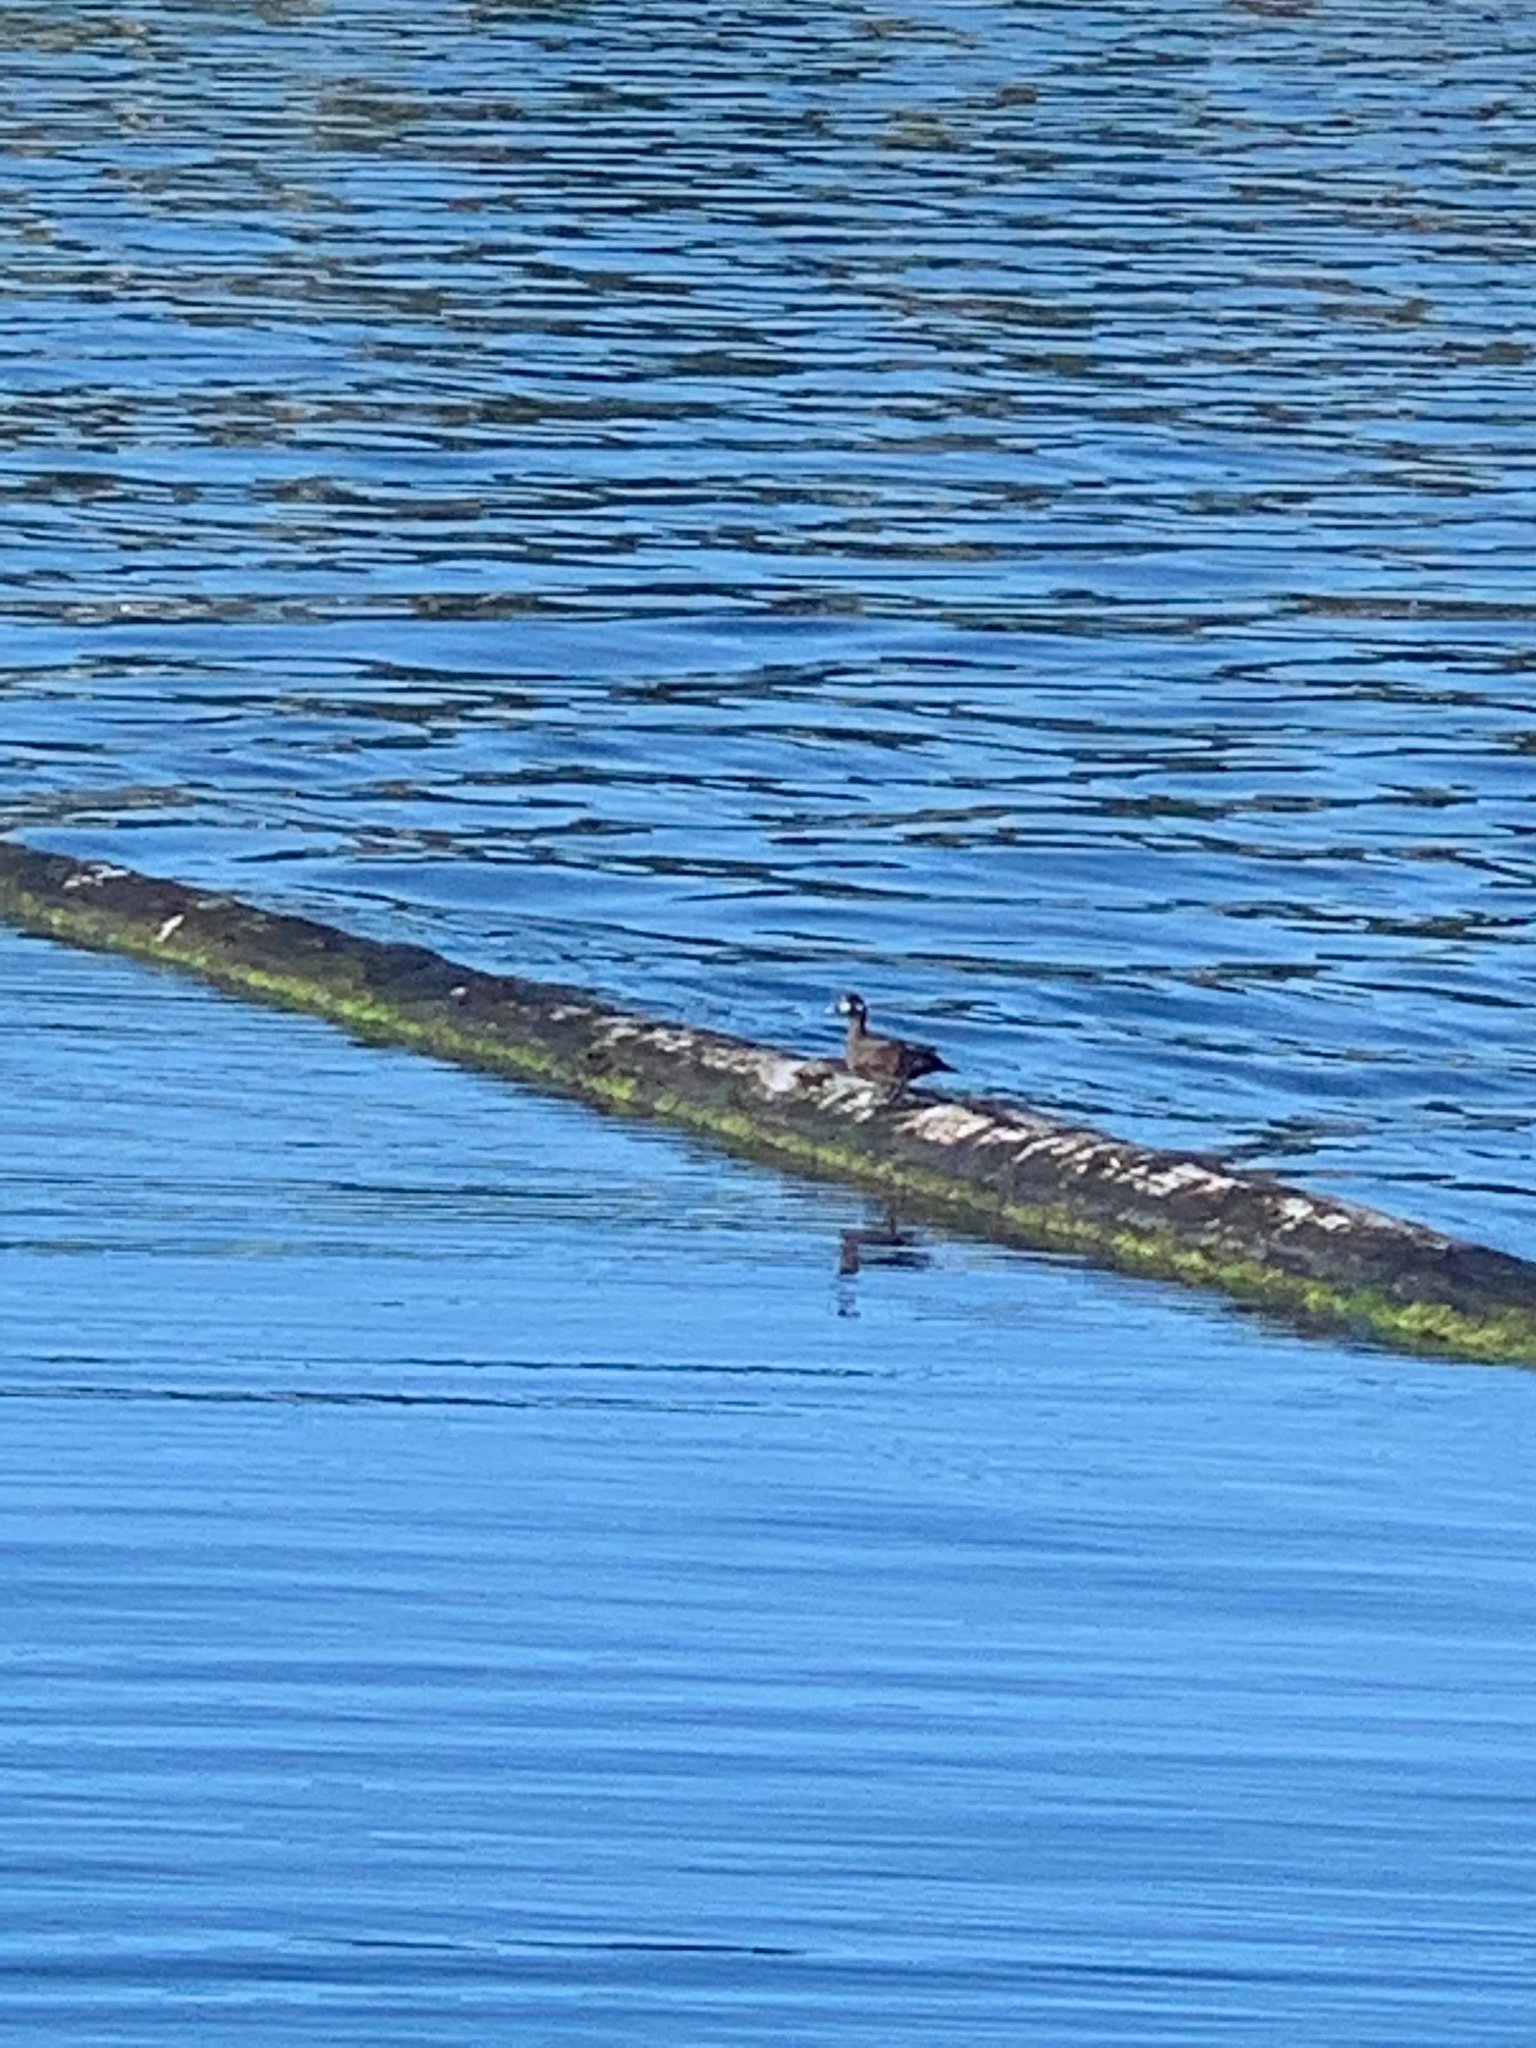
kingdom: Animalia
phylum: Chordata
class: Aves
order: Anseriformes
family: Anatidae
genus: Histrionicus
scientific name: Histrionicus histrionicus
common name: Harlequin duck
